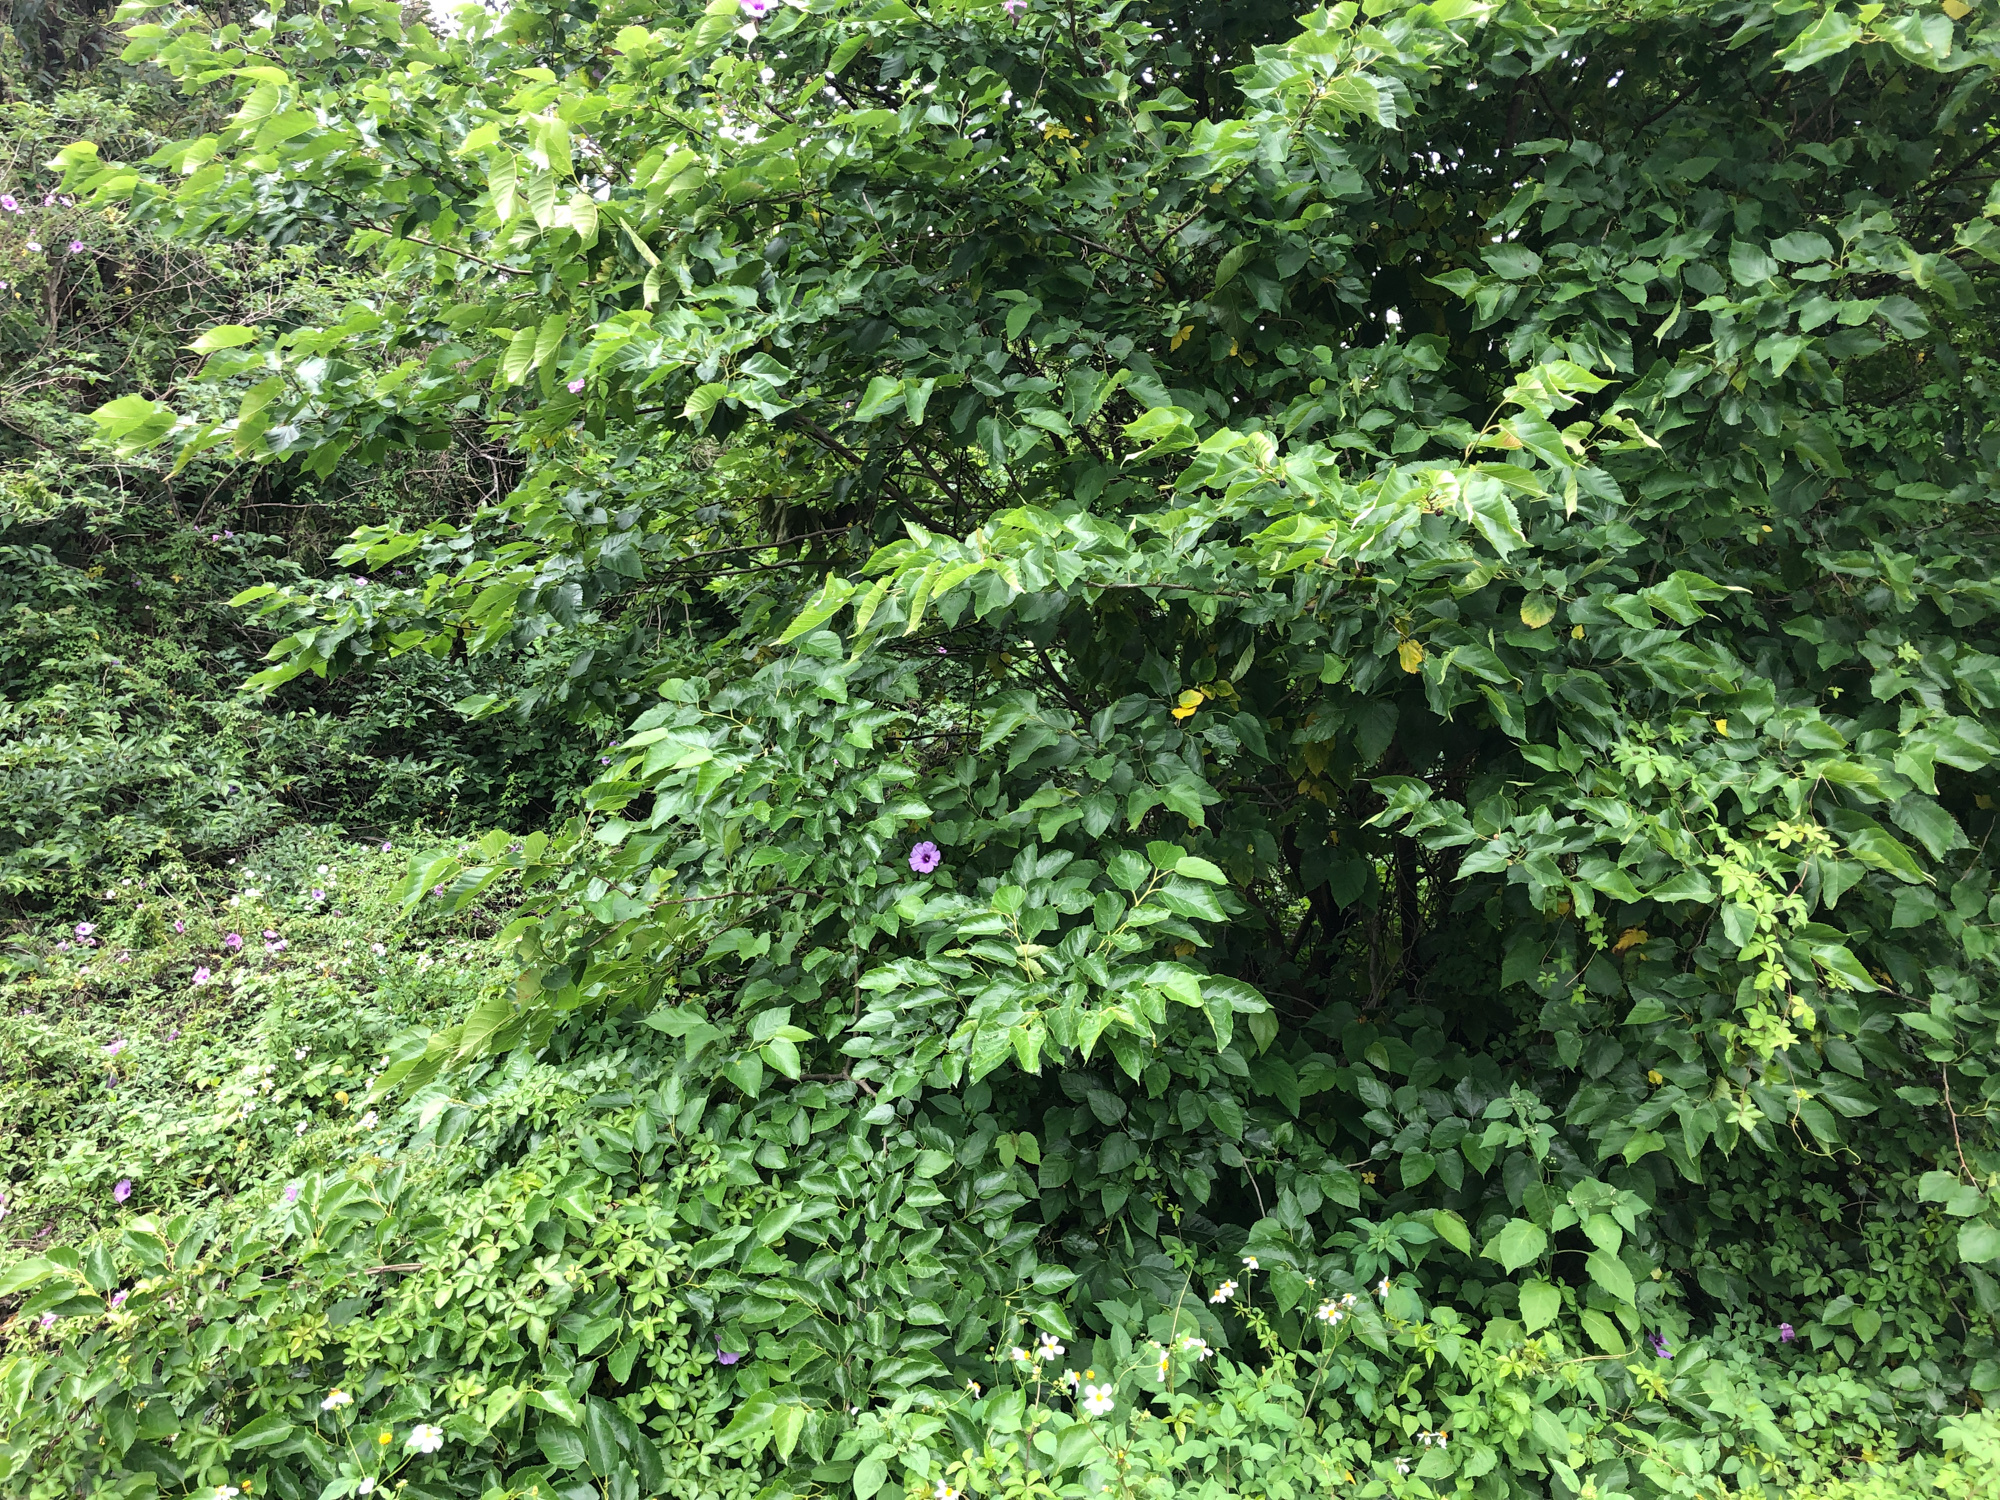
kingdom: Plantae
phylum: Tracheophyta
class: Magnoliopsida
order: Rosales
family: Moraceae
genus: Morus
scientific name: Morus indica
